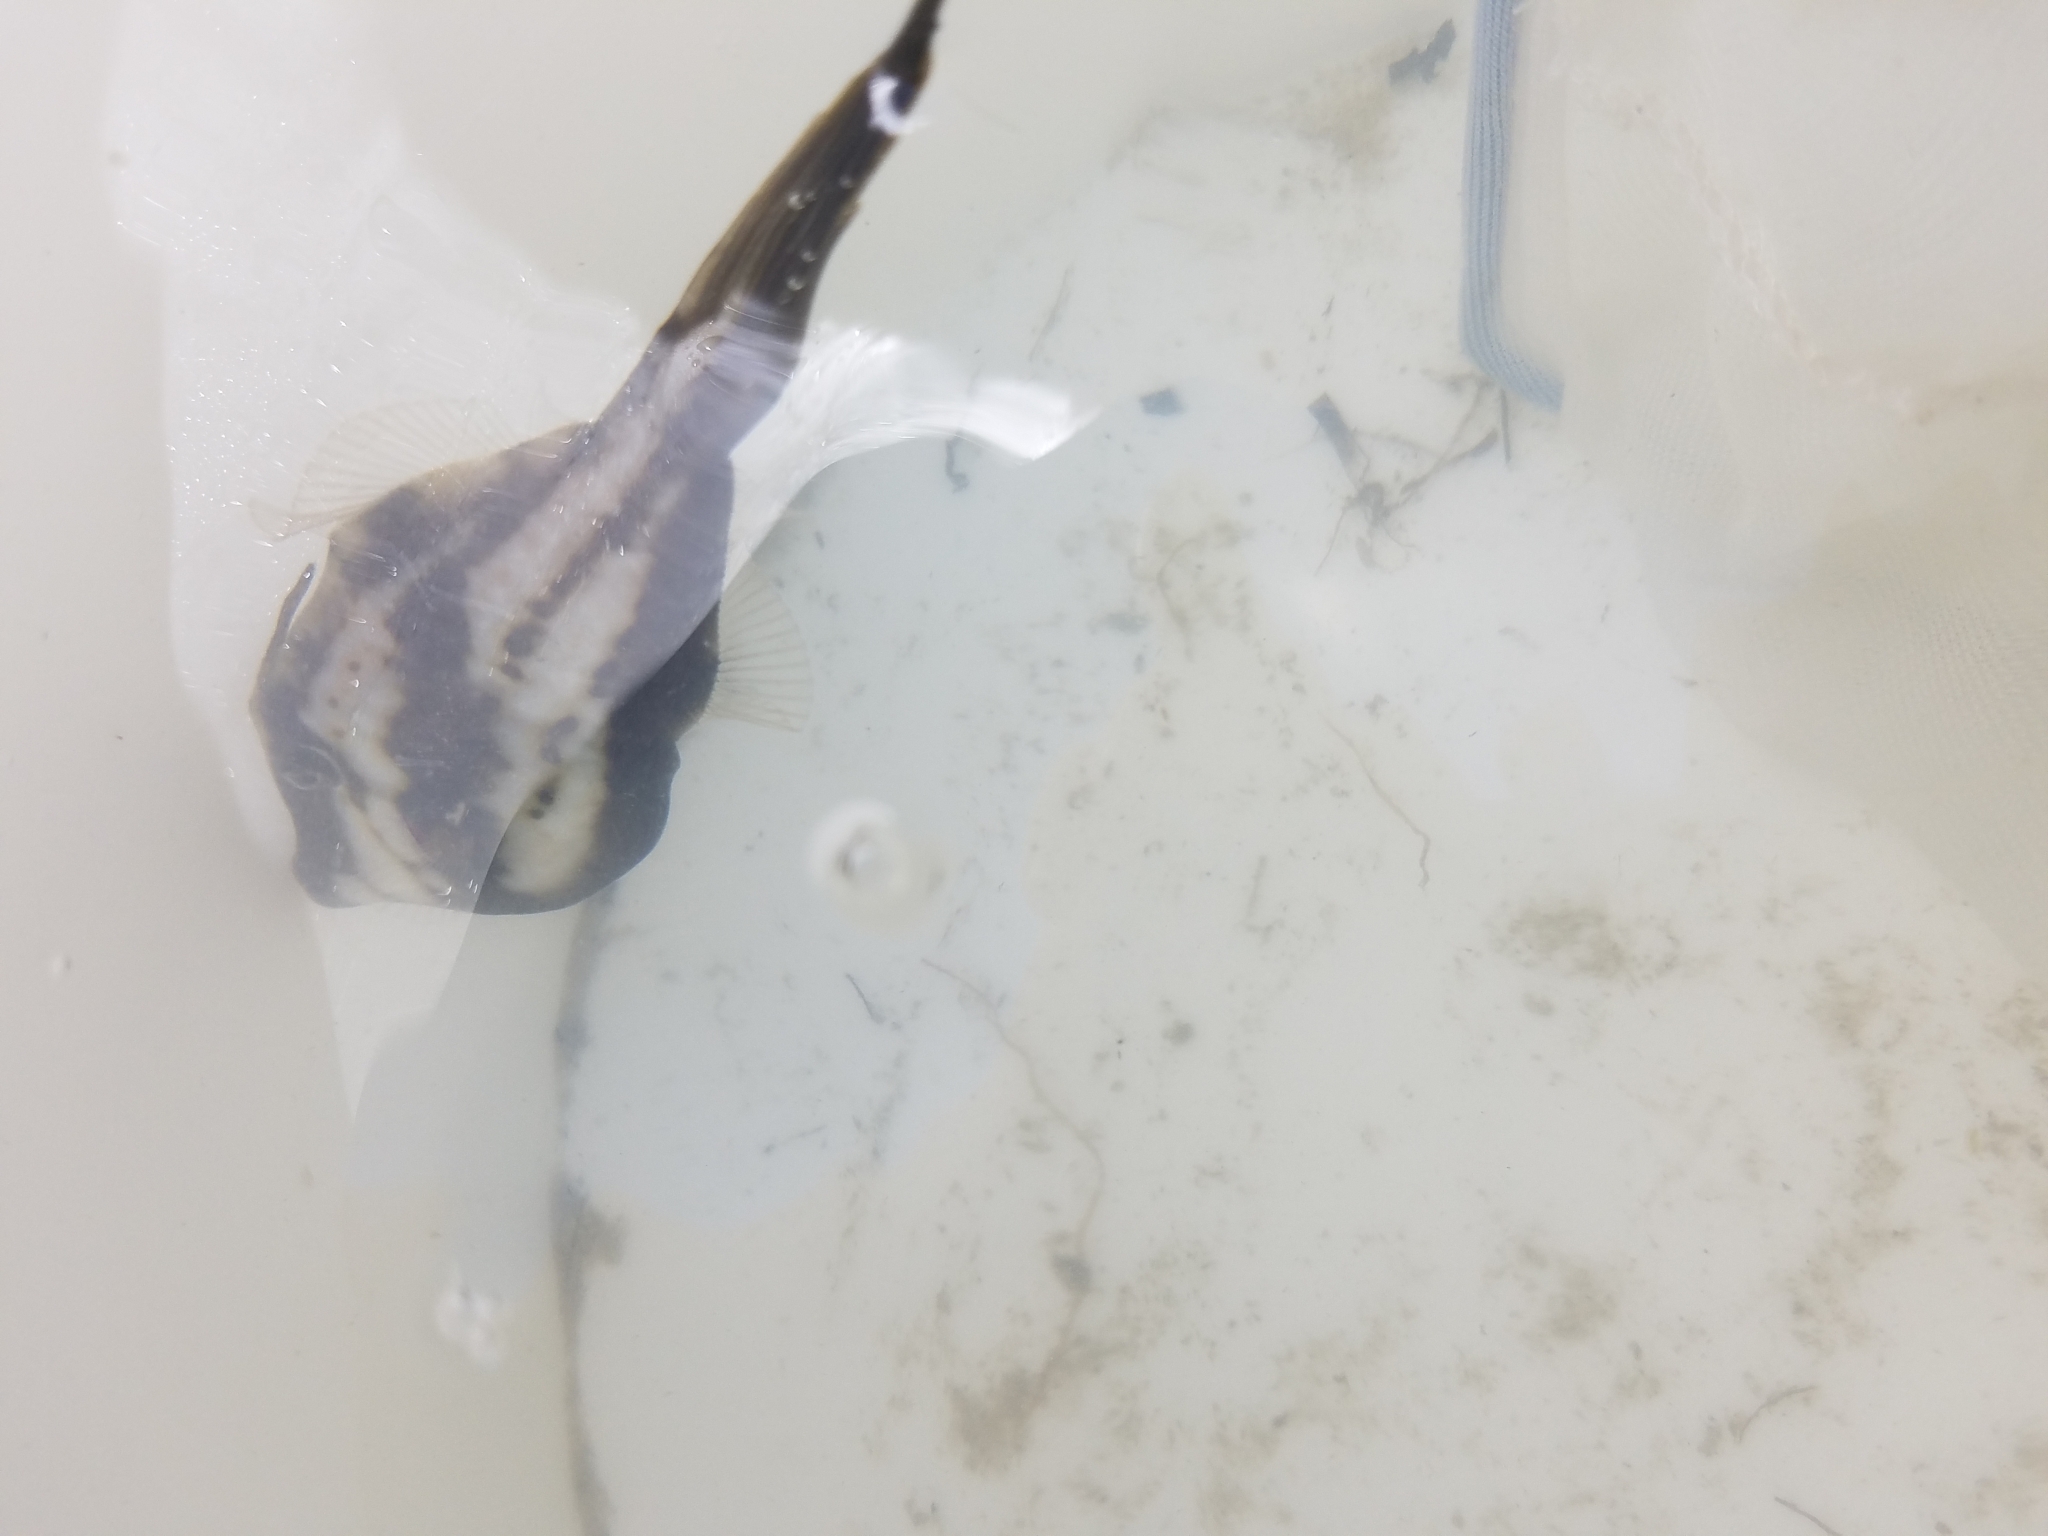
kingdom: Animalia
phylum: Chordata
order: Tetraodontiformes
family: Monacanthidae
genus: Aluterus
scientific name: Aluterus schoepfii
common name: Orange filefish
